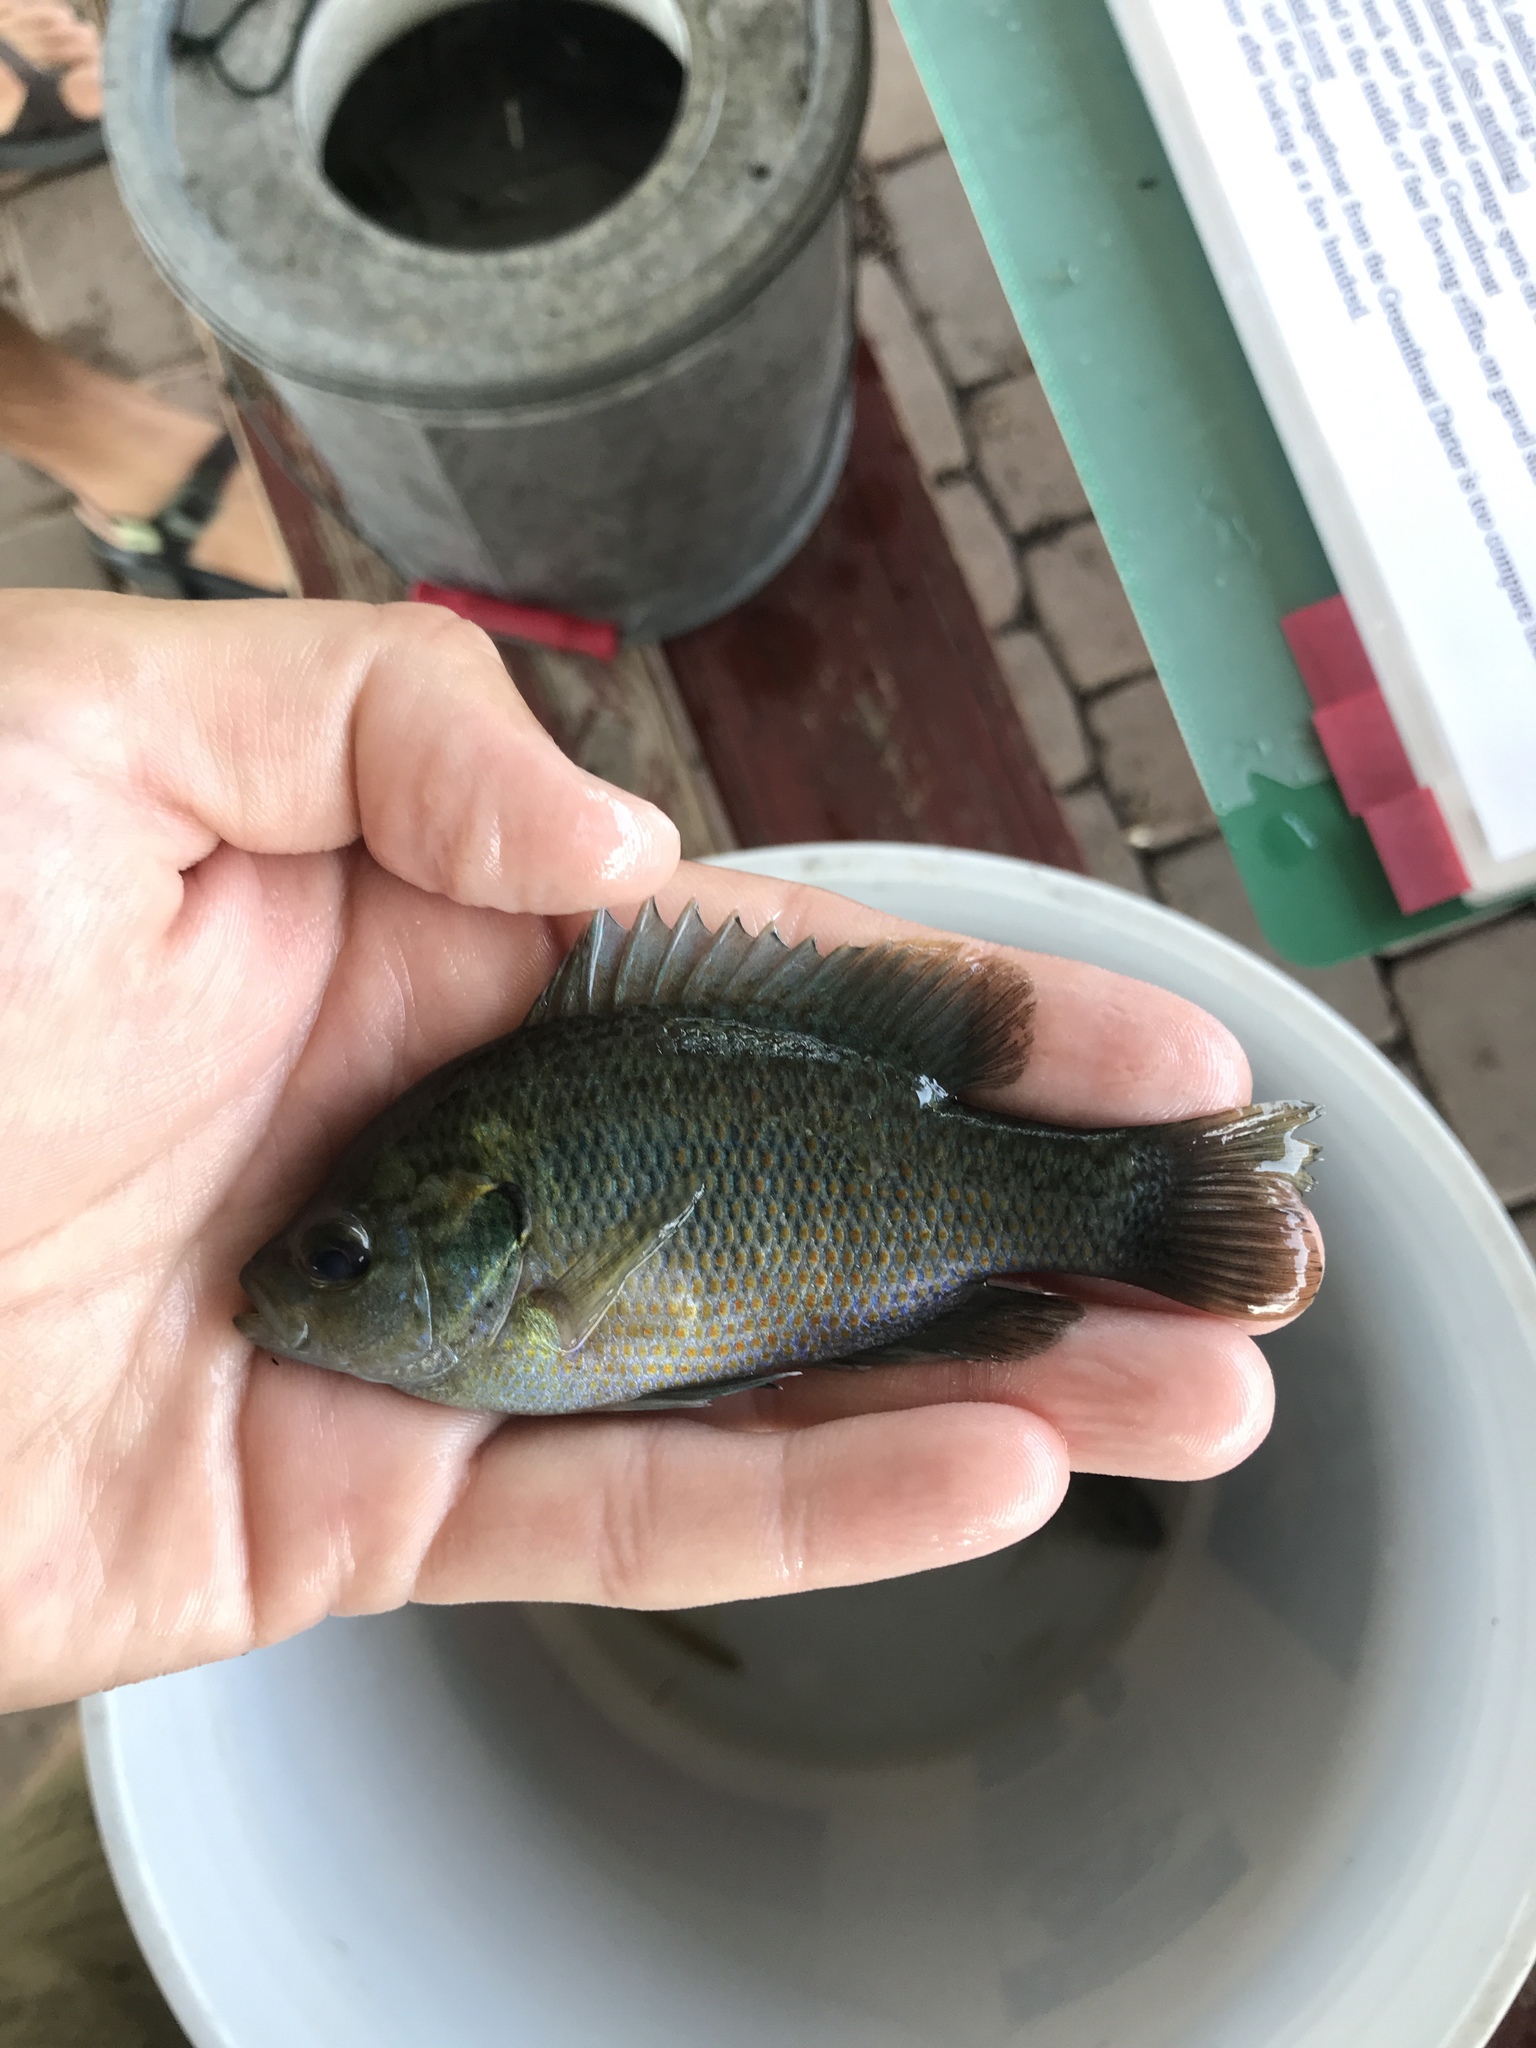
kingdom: Animalia
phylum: Chordata
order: Perciformes
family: Centrarchidae
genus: Lepomis
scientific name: Lepomis miniatus
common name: Redspotted sunfish
